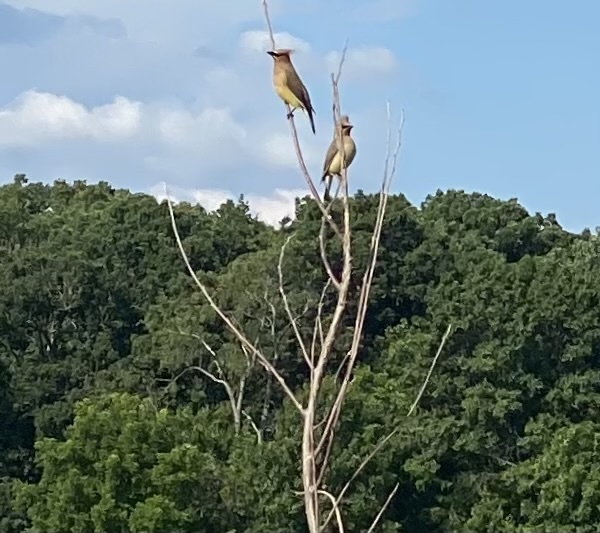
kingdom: Animalia
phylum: Chordata
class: Aves
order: Passeriformes
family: Bombycillidae
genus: Bombycilla
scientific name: Bombycilla cedrorum
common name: Cedar waxwing
